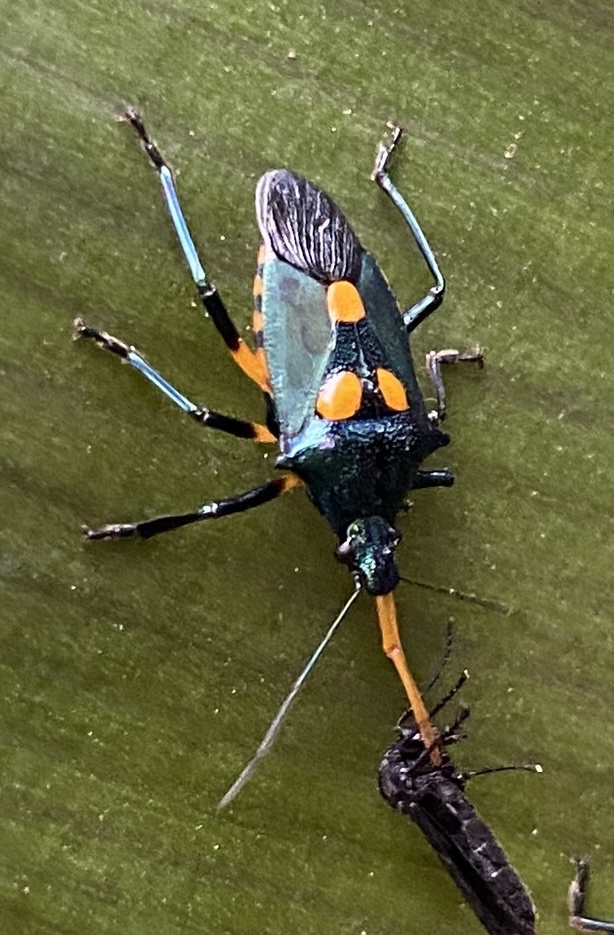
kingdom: Animalia
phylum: Arthropoda
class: Insecta
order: Hemiptera
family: Pentatomidae
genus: Euthyrhynchus
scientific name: Euthyrhynchus floridanus
